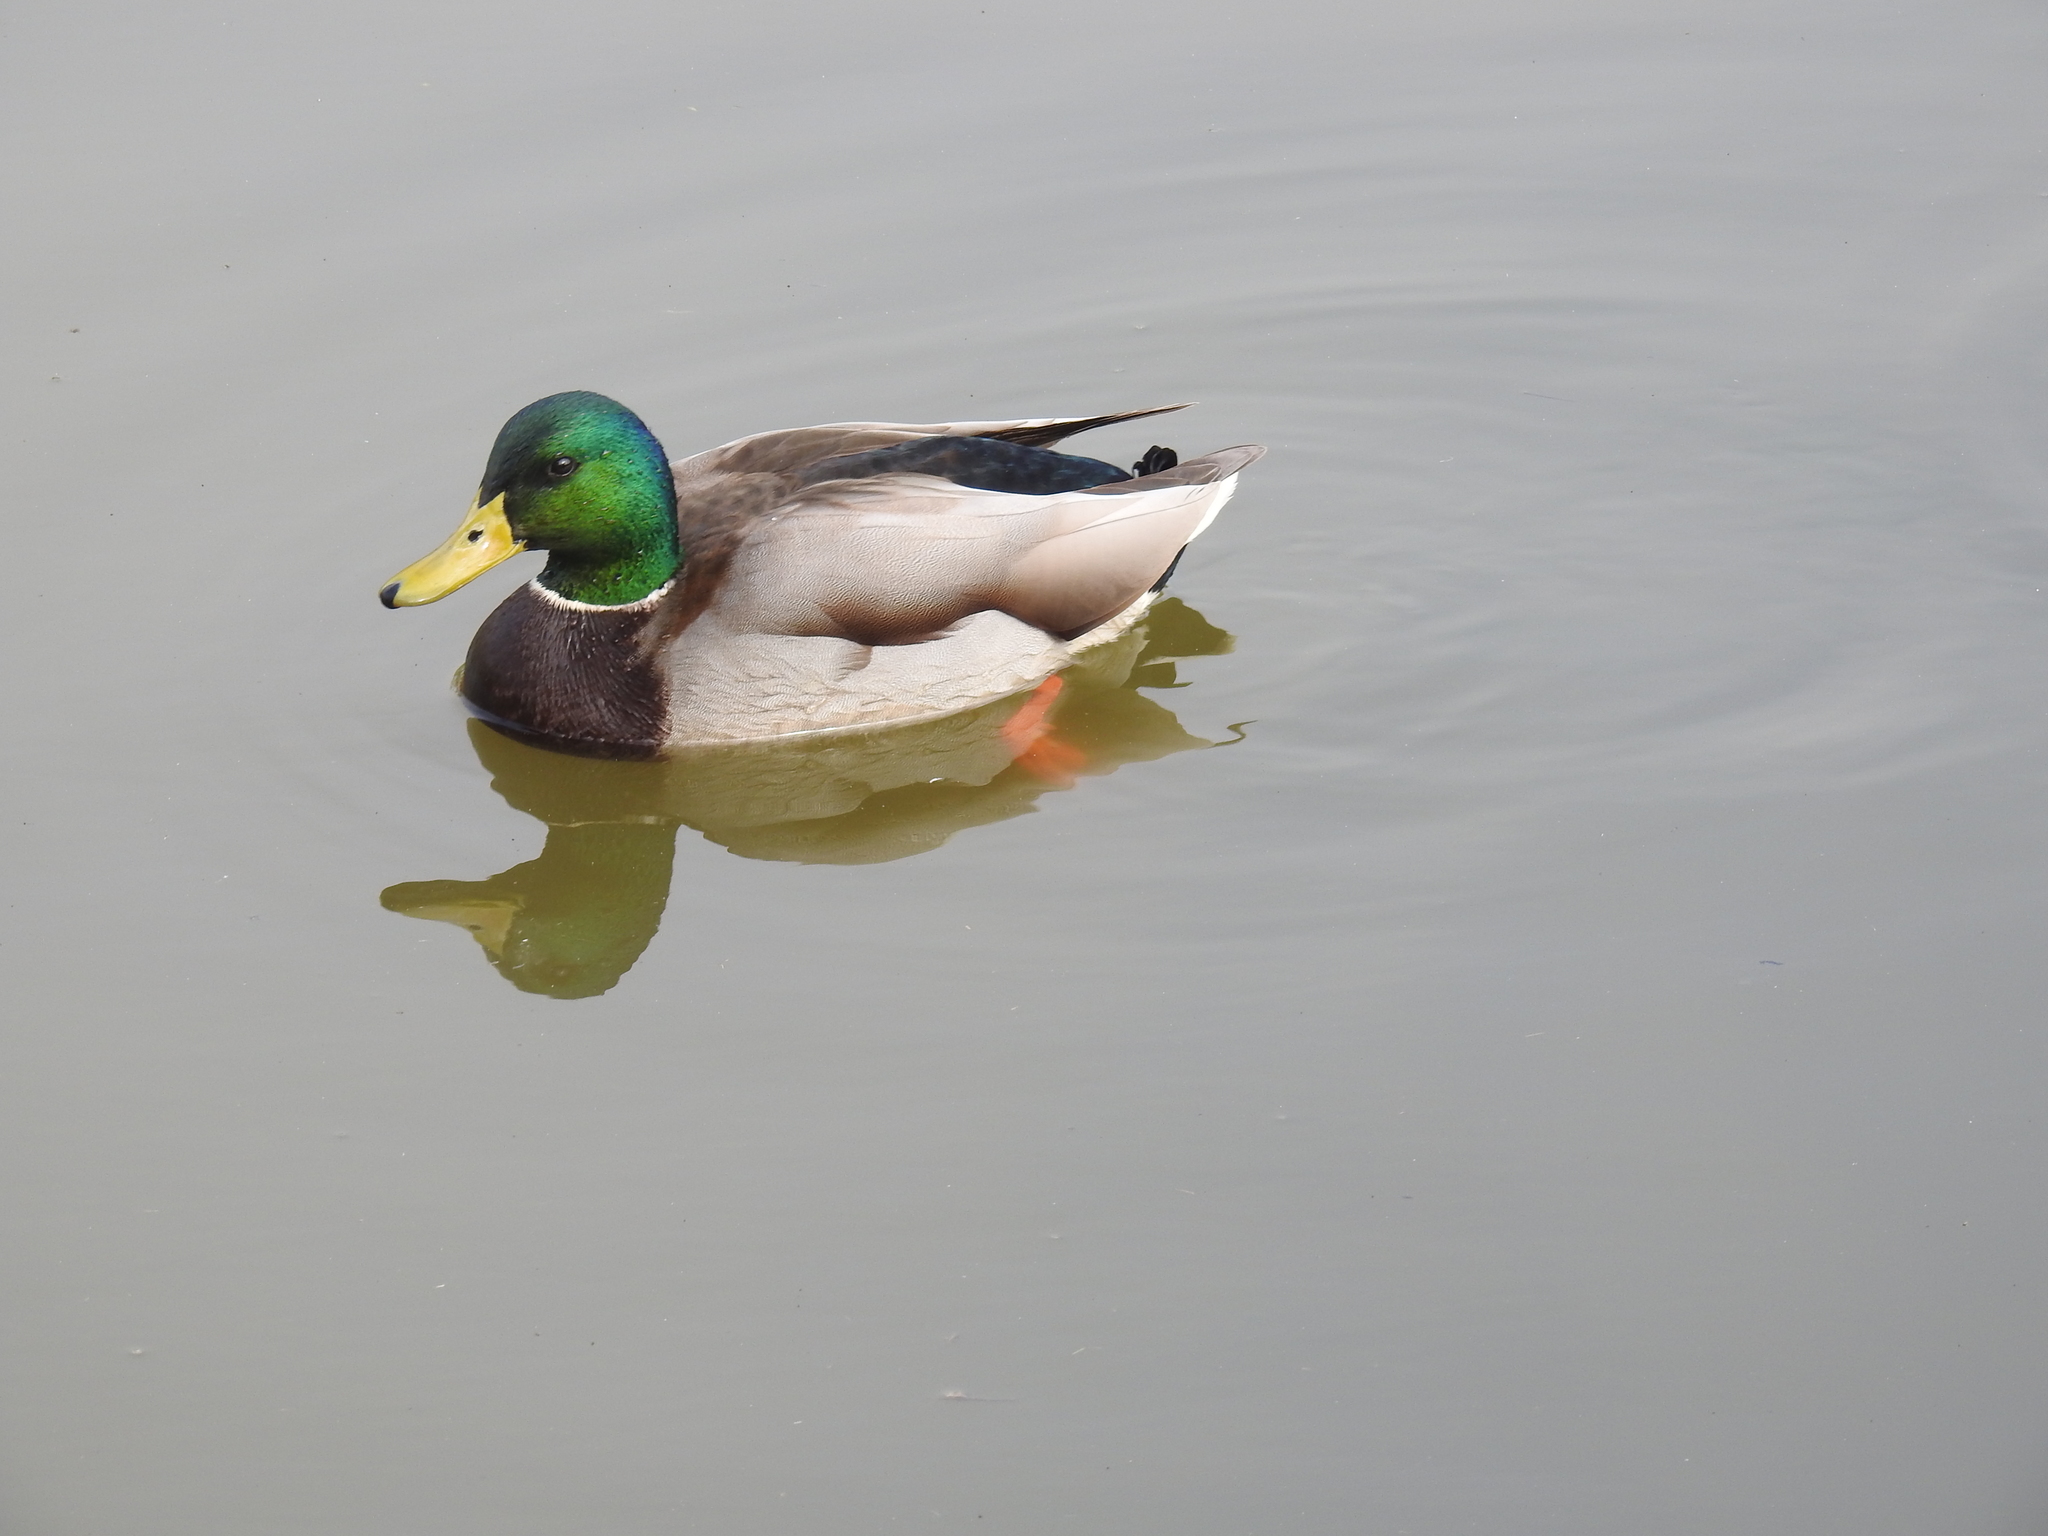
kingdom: Animalia
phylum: Chordata
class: Aves
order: Anseriformes
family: Anatidae
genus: Anas
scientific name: Anas platyrhynchos
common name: Mallard
